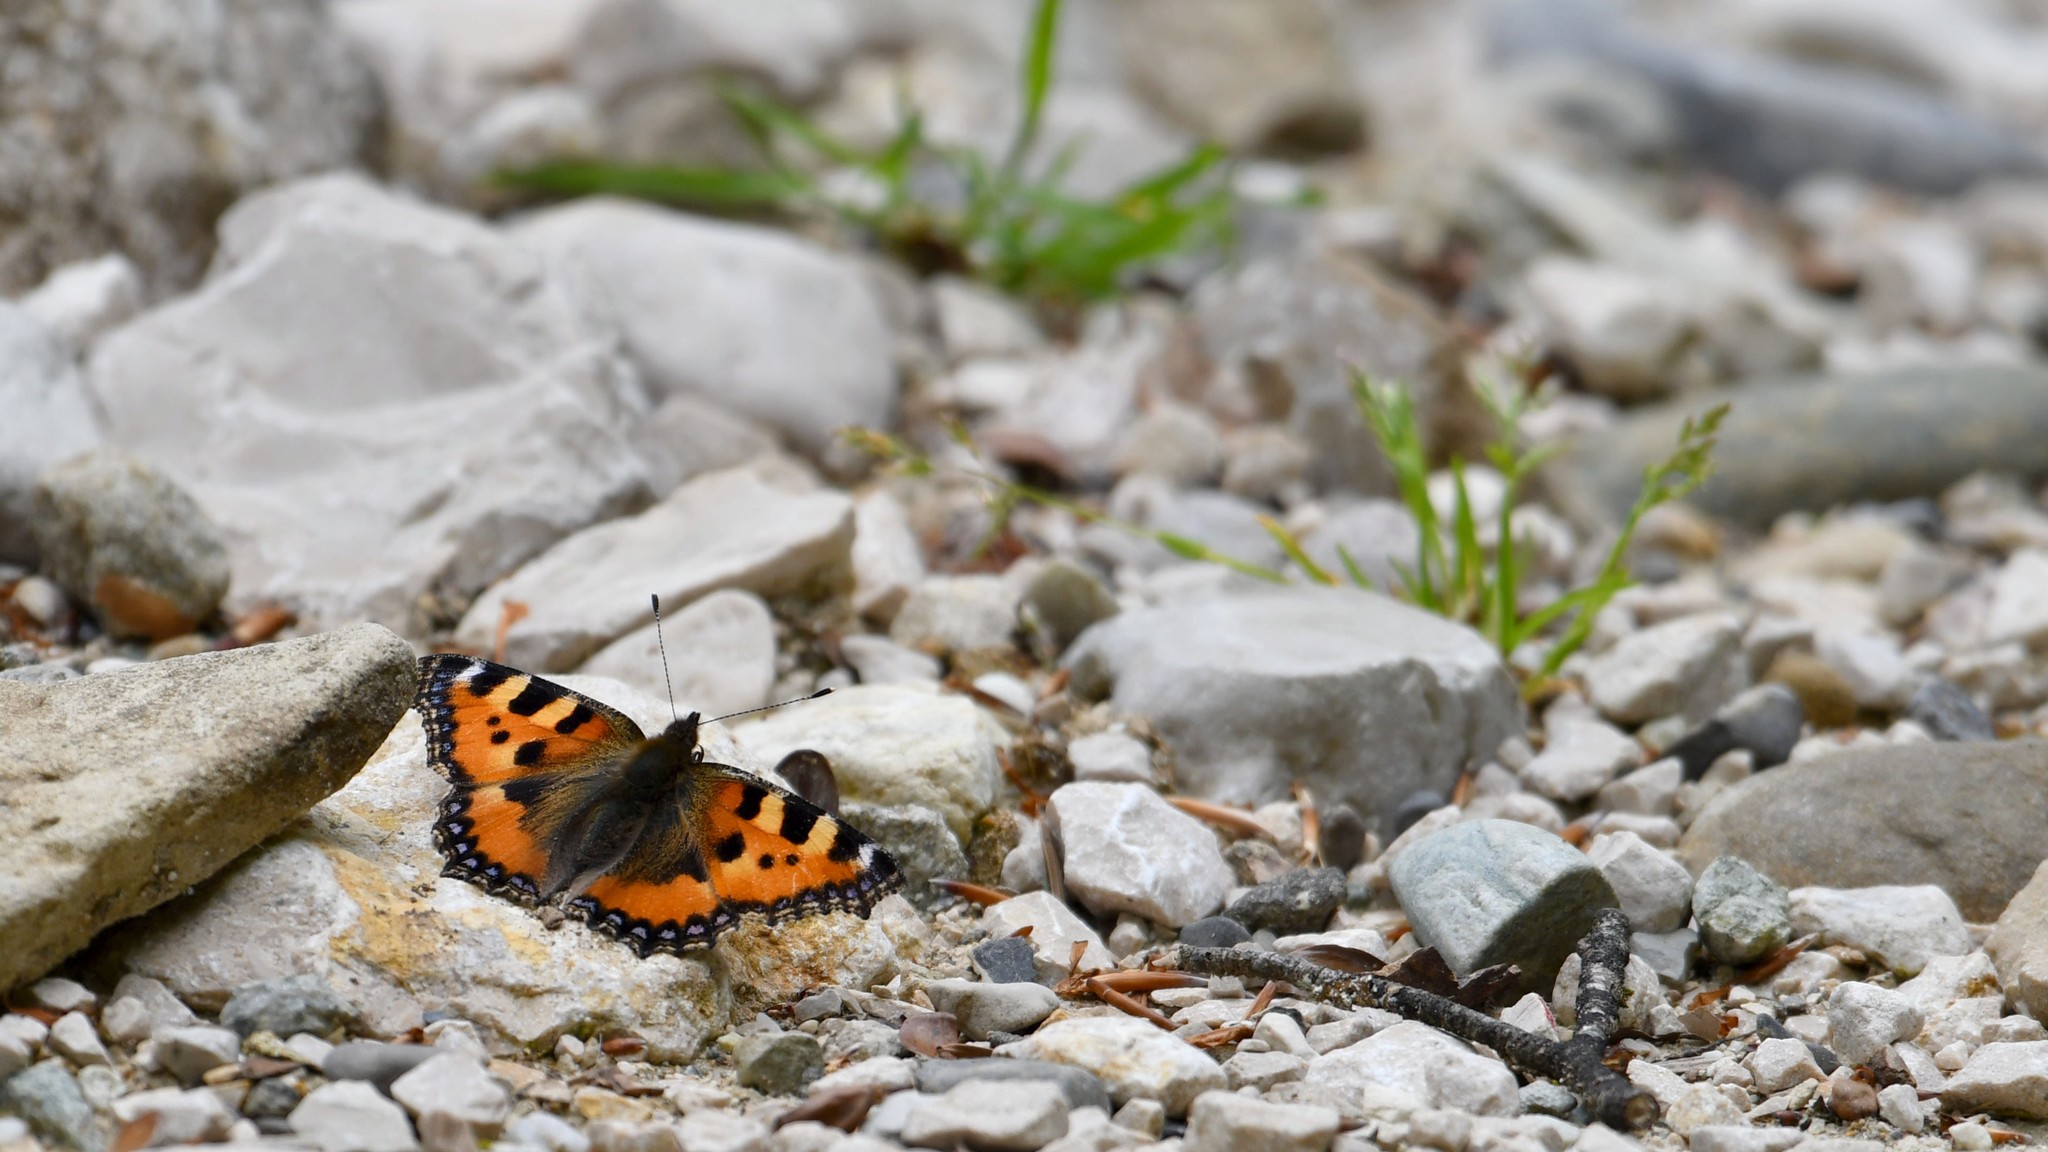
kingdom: Animalia
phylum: Arthropoda
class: Insecta
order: Lepidoptera
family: Nymphalidae
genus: Aglais
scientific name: Aglais urticae
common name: Small tortoiseshell
